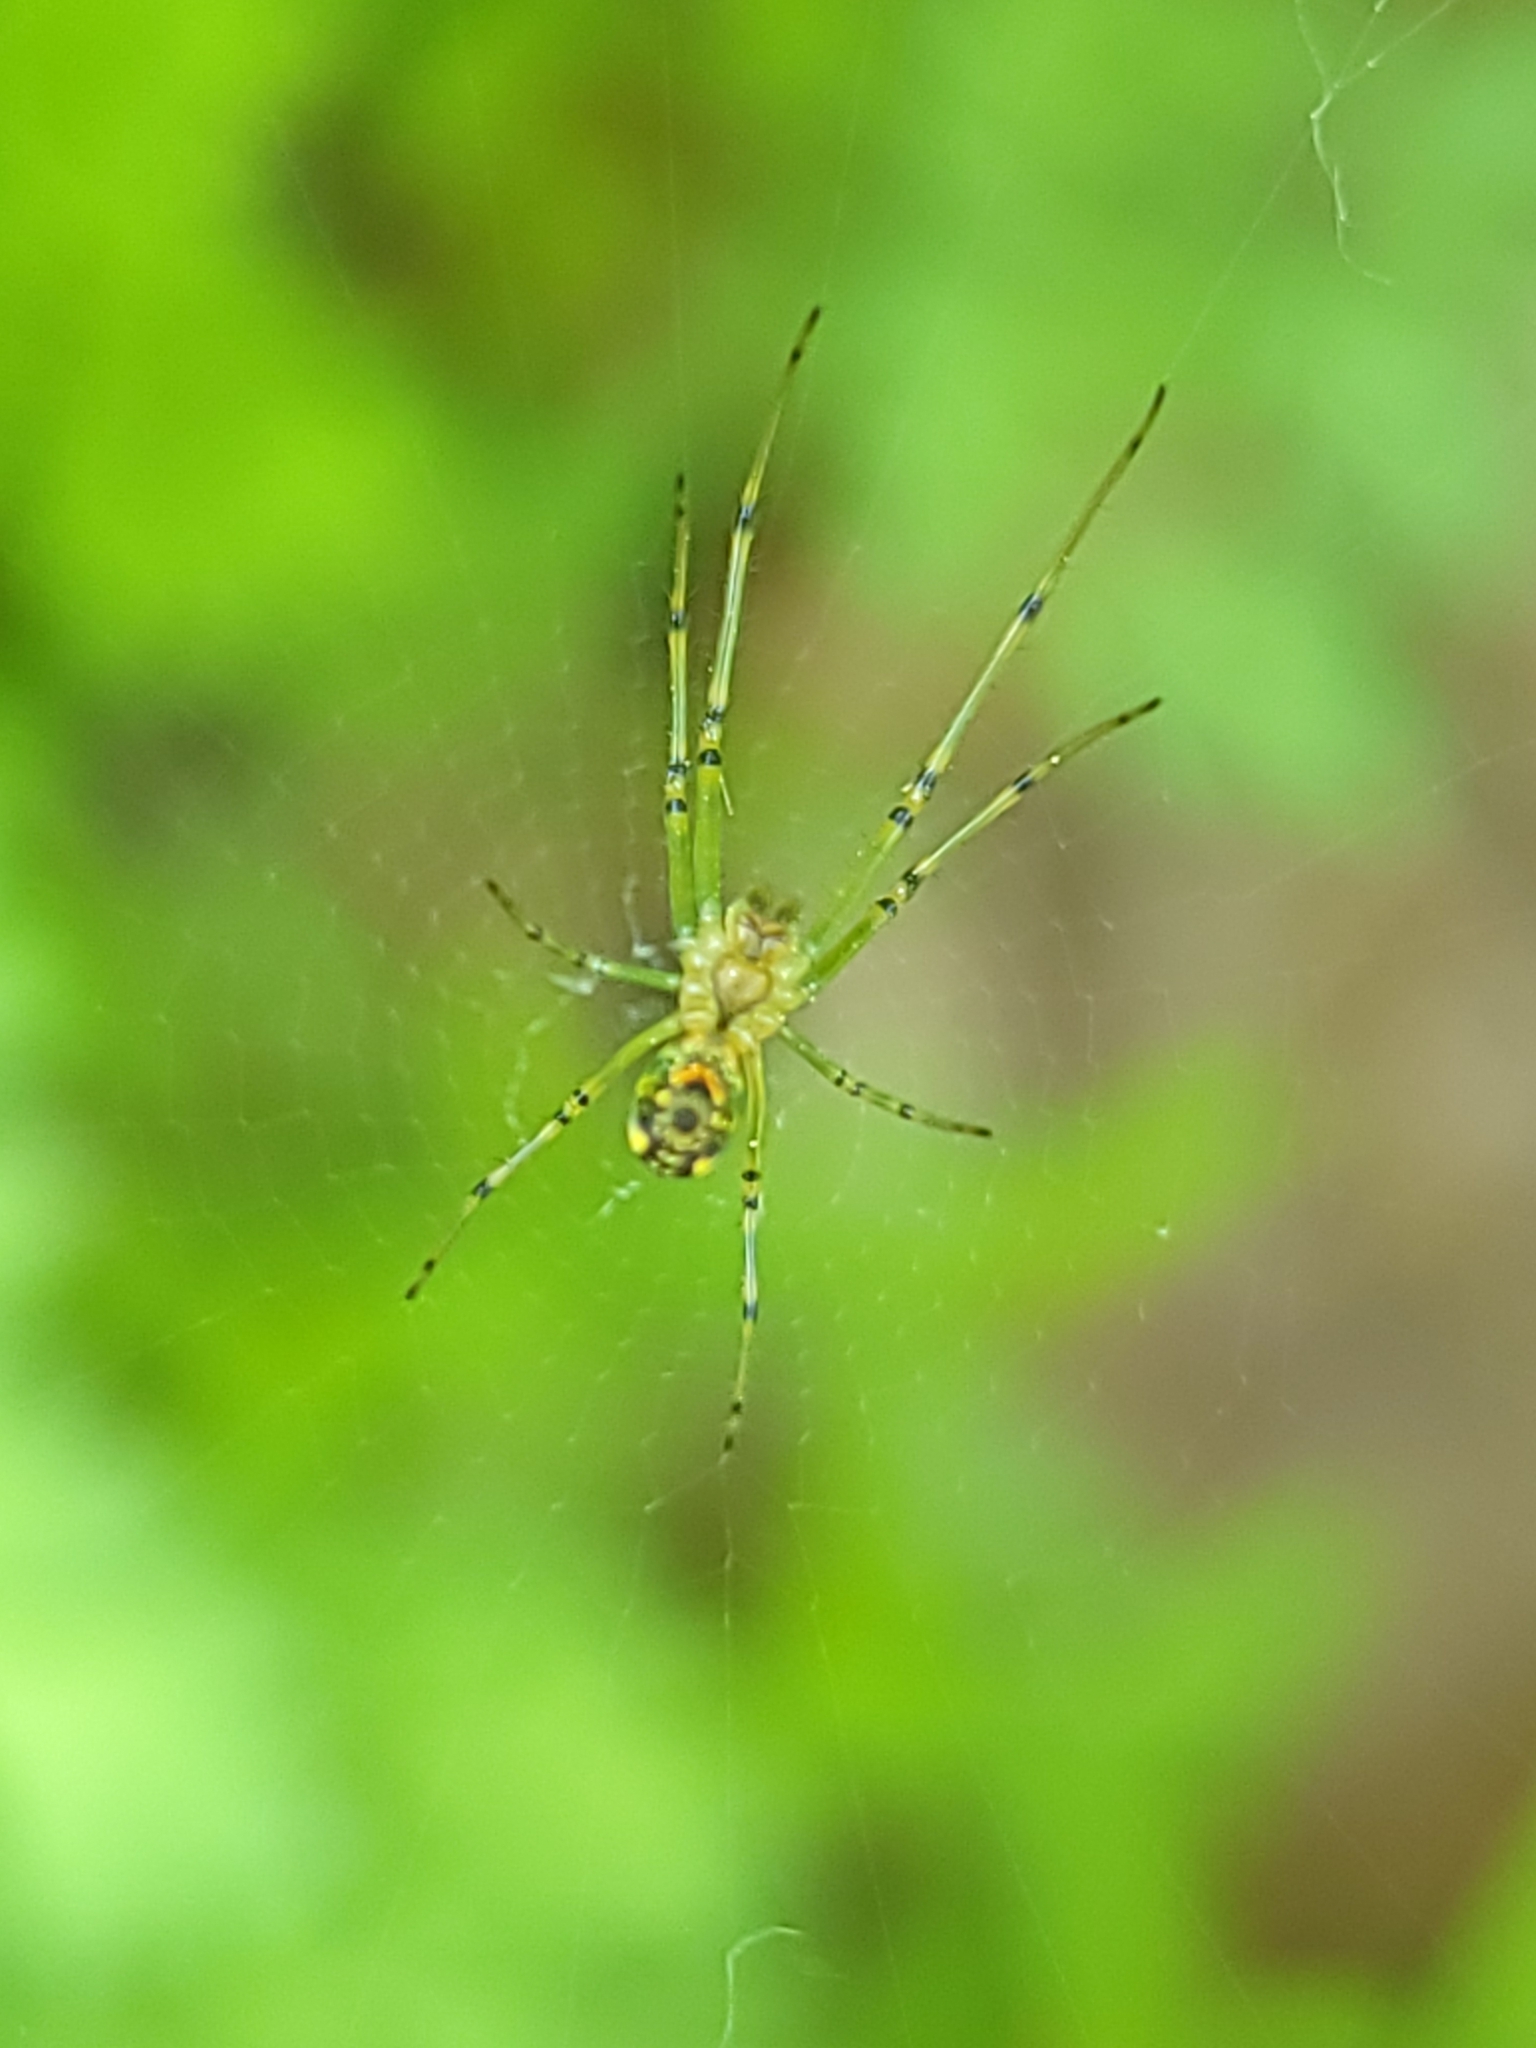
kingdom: Animalia
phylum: Arthropoda
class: Arachnida
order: Araneae
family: Tetragnathidae
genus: Leucauge
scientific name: Leucauge venusta
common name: Longjawed orb weavers
